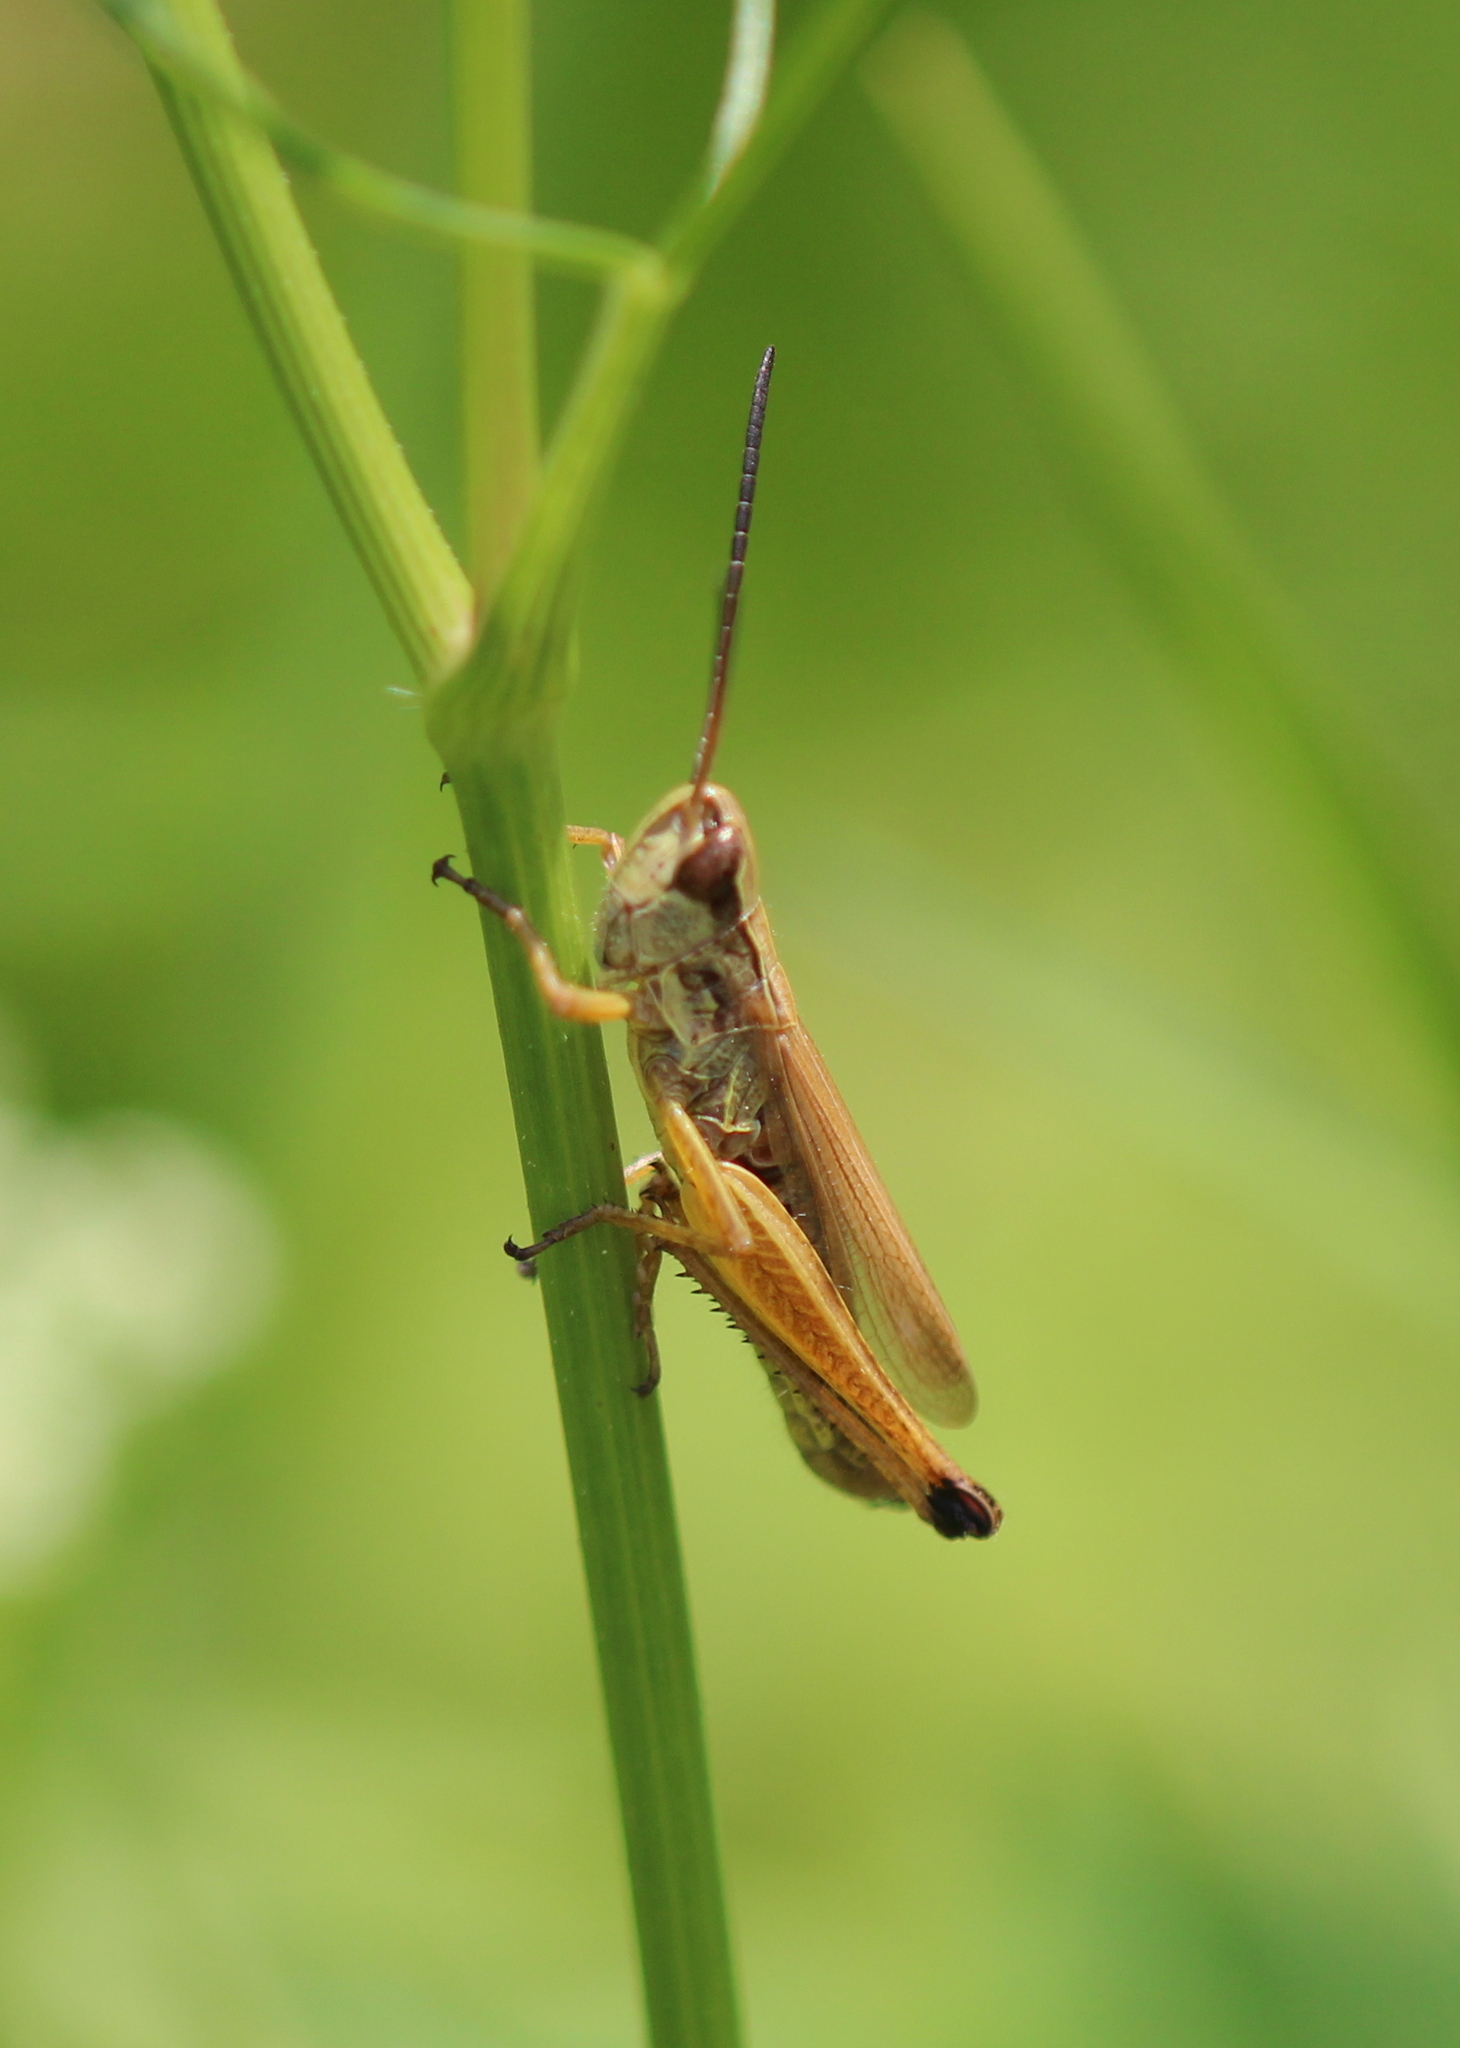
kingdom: Animalia
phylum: Arthropoda
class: Insecta
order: Orthoptera
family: Acrididae
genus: Pseudochorthippus
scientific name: Pseudochorthippus curtipennis
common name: Marsh meadow grasshopper
